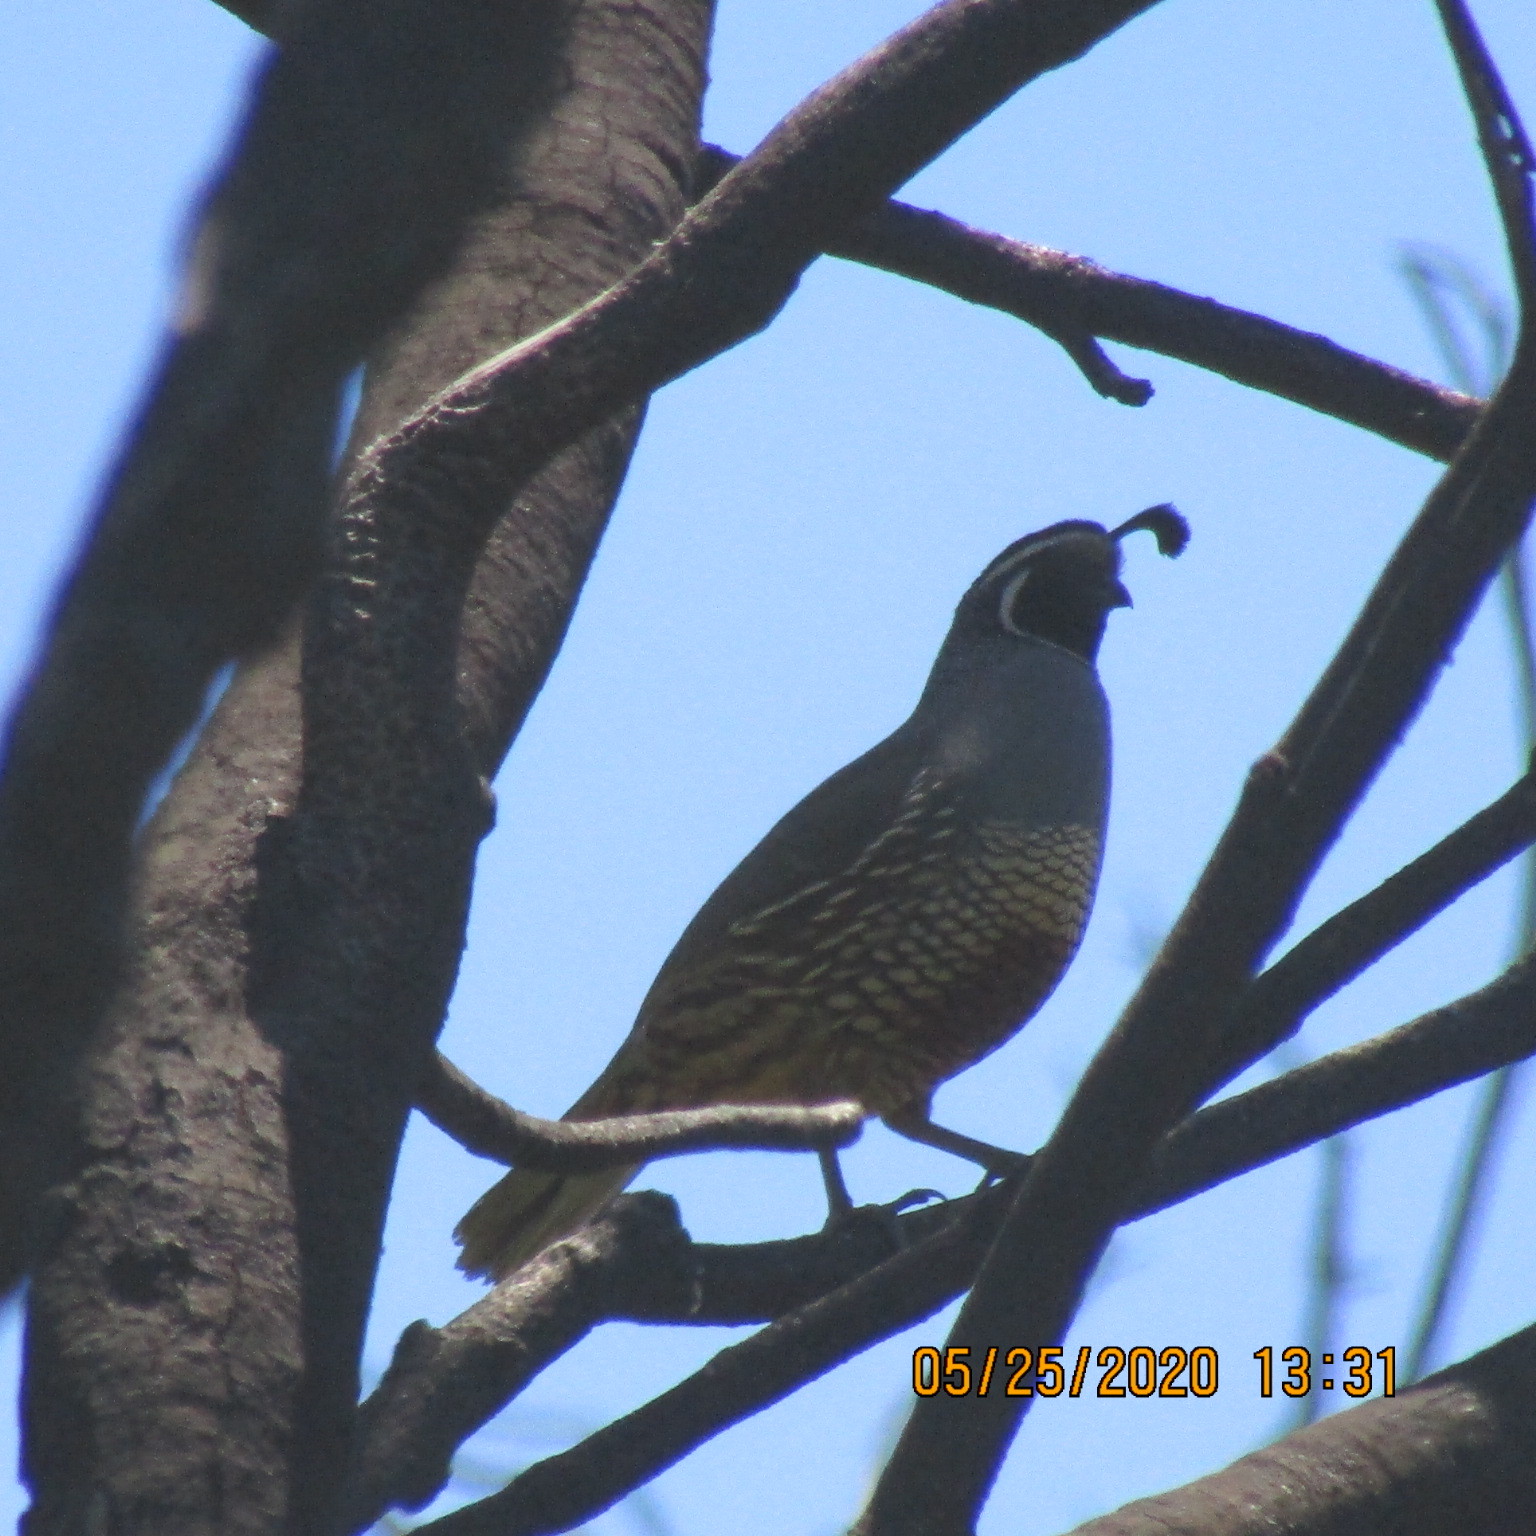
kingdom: Animalia
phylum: Chordata
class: Aves
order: Galliformes
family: Odontophoridae
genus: Callipepla
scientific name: Callipepla californica
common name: California quail
